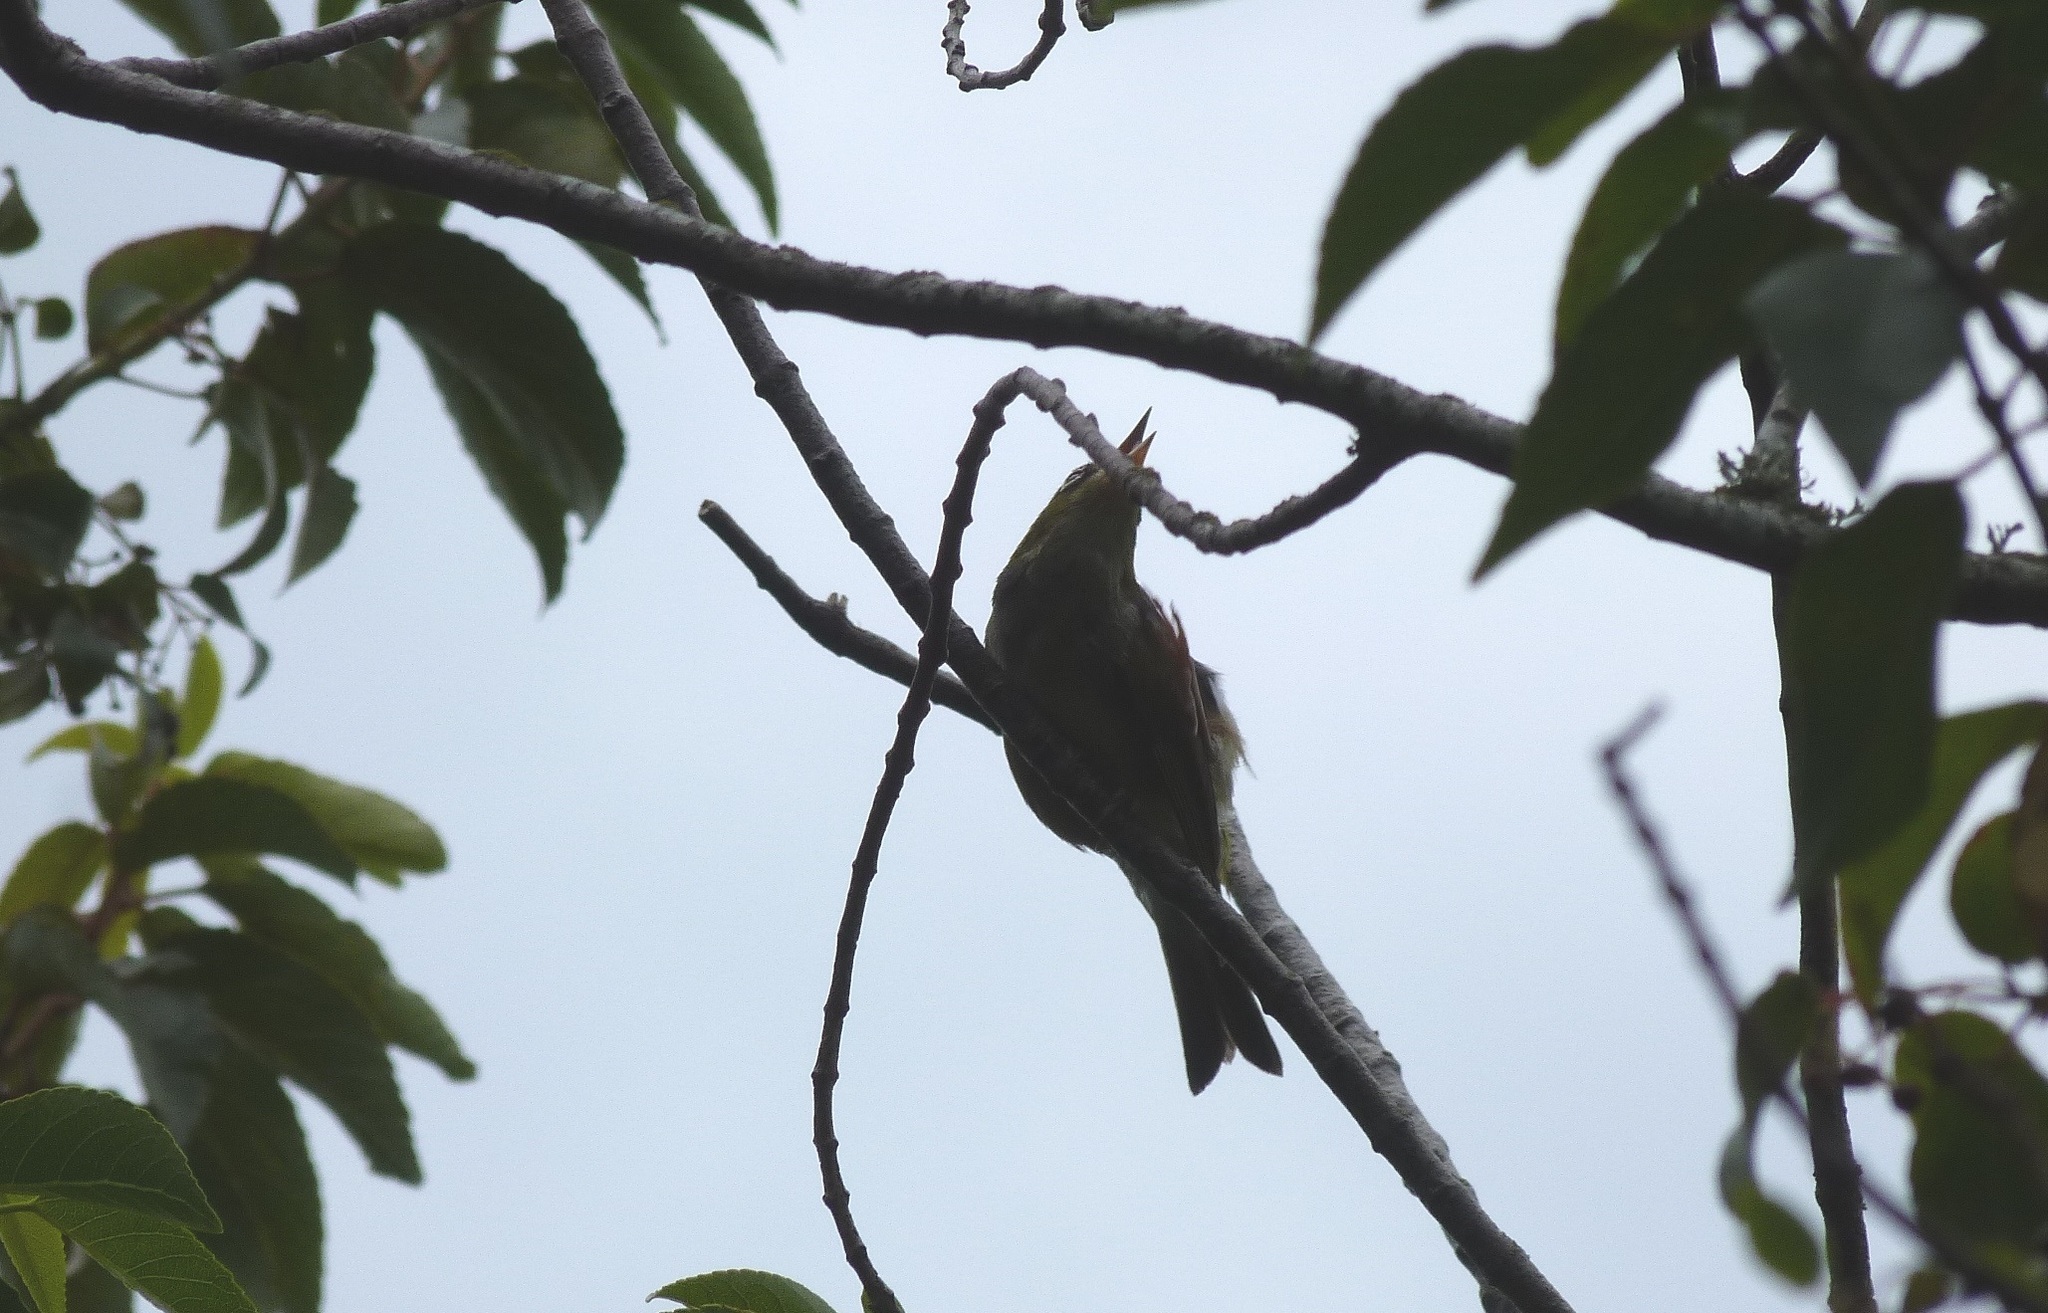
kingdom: Animalia
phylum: Chordata
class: Aves
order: Passeriformes
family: Zosteropidae
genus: Zosterops
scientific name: Zosterops lateralis
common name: Silvereye
